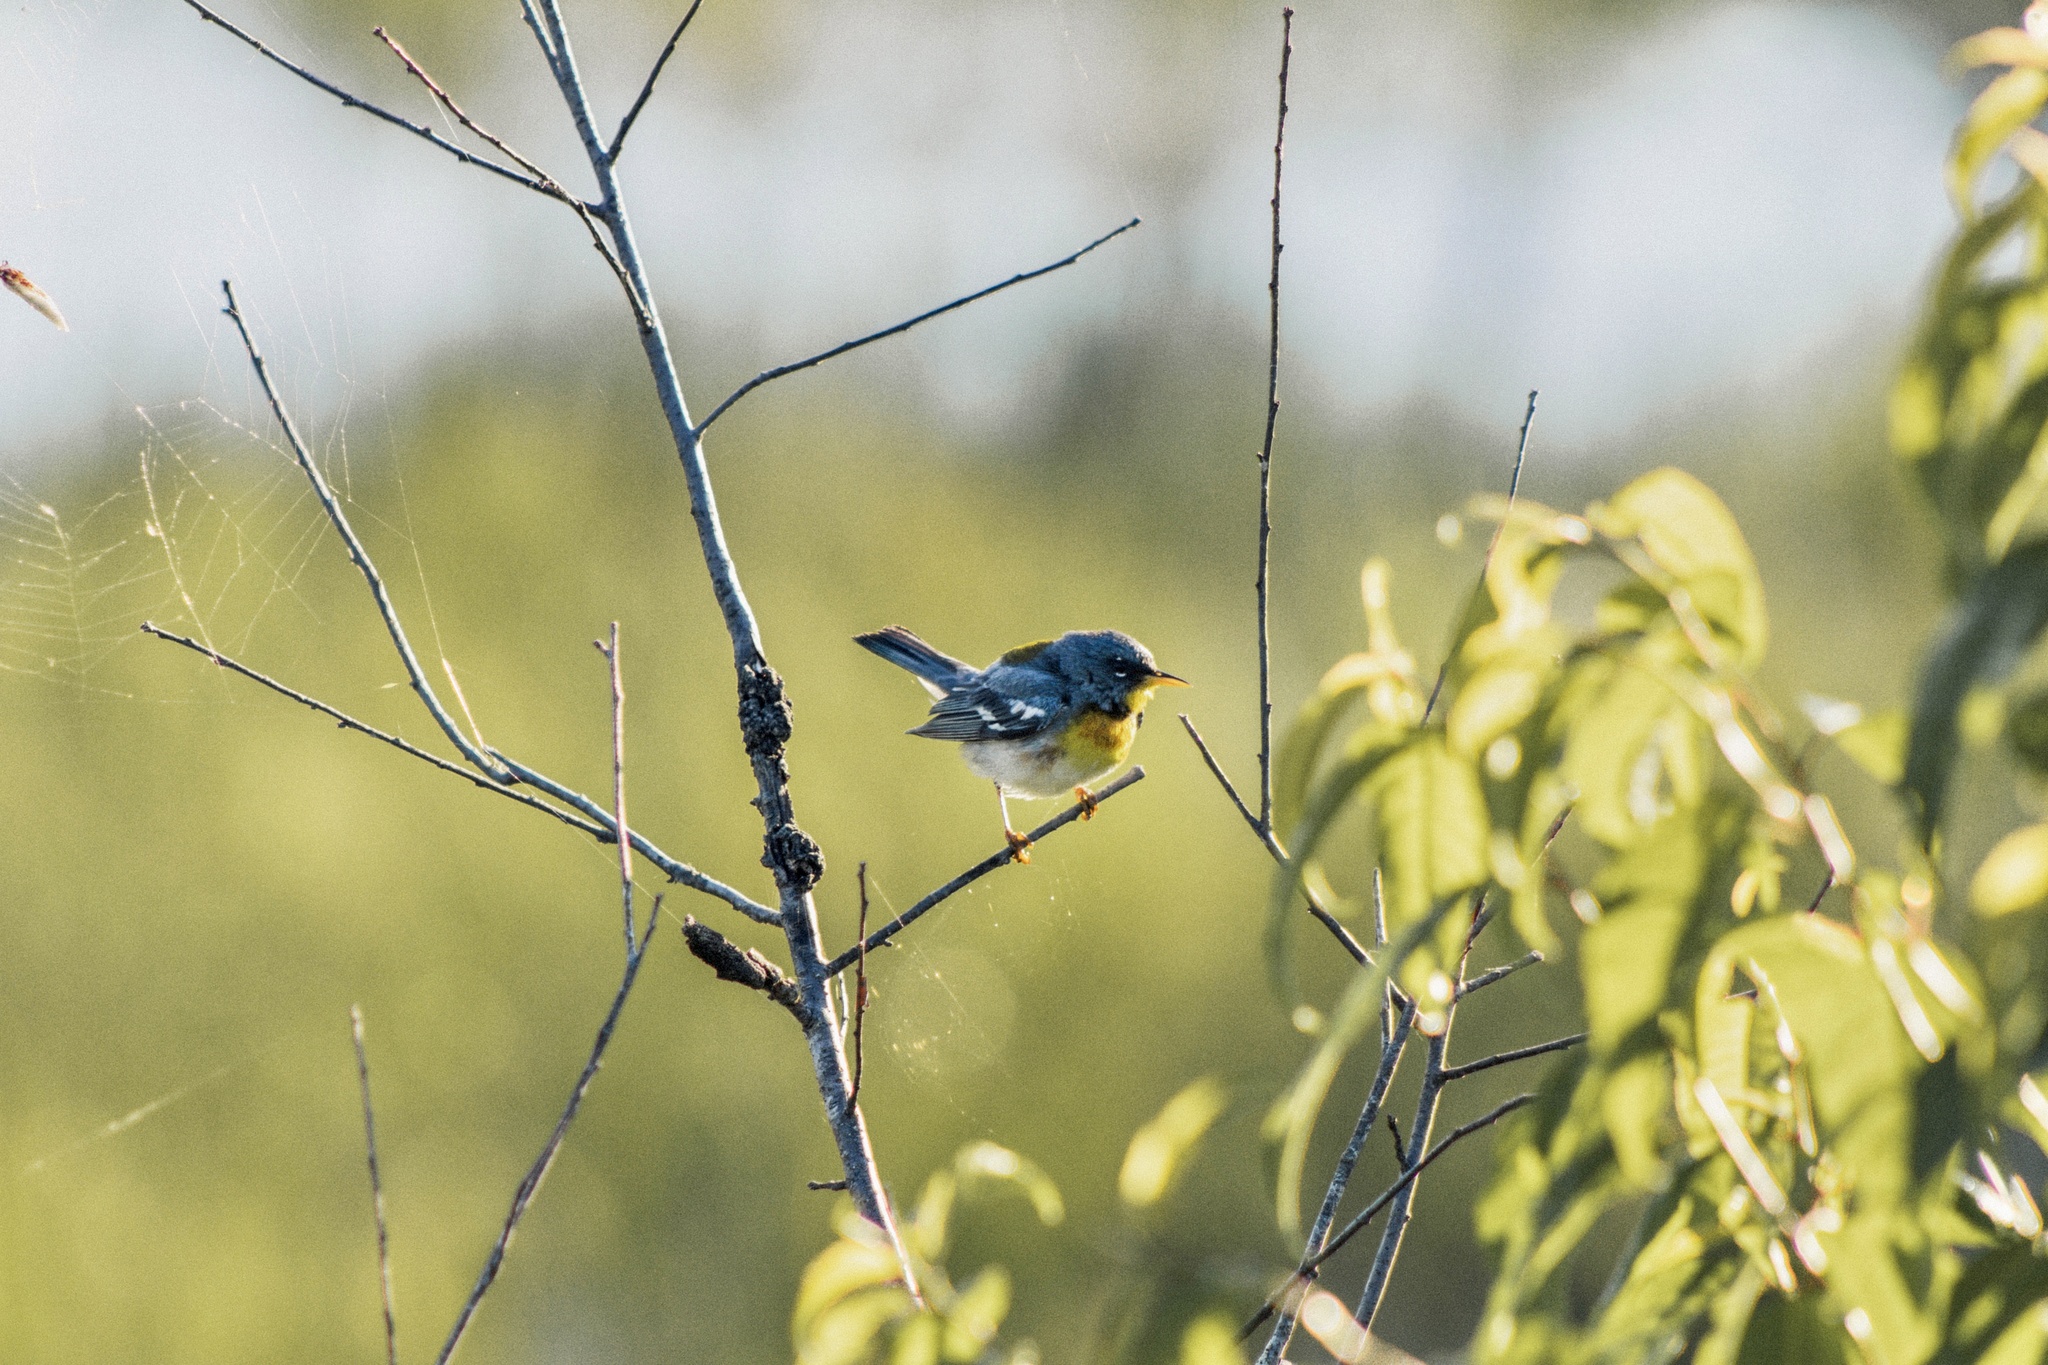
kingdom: Animalia
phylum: Chordata
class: Aves
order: Passeriformes
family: Parulidae
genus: Setophaga
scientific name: Setophaga americana
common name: Northern parula
